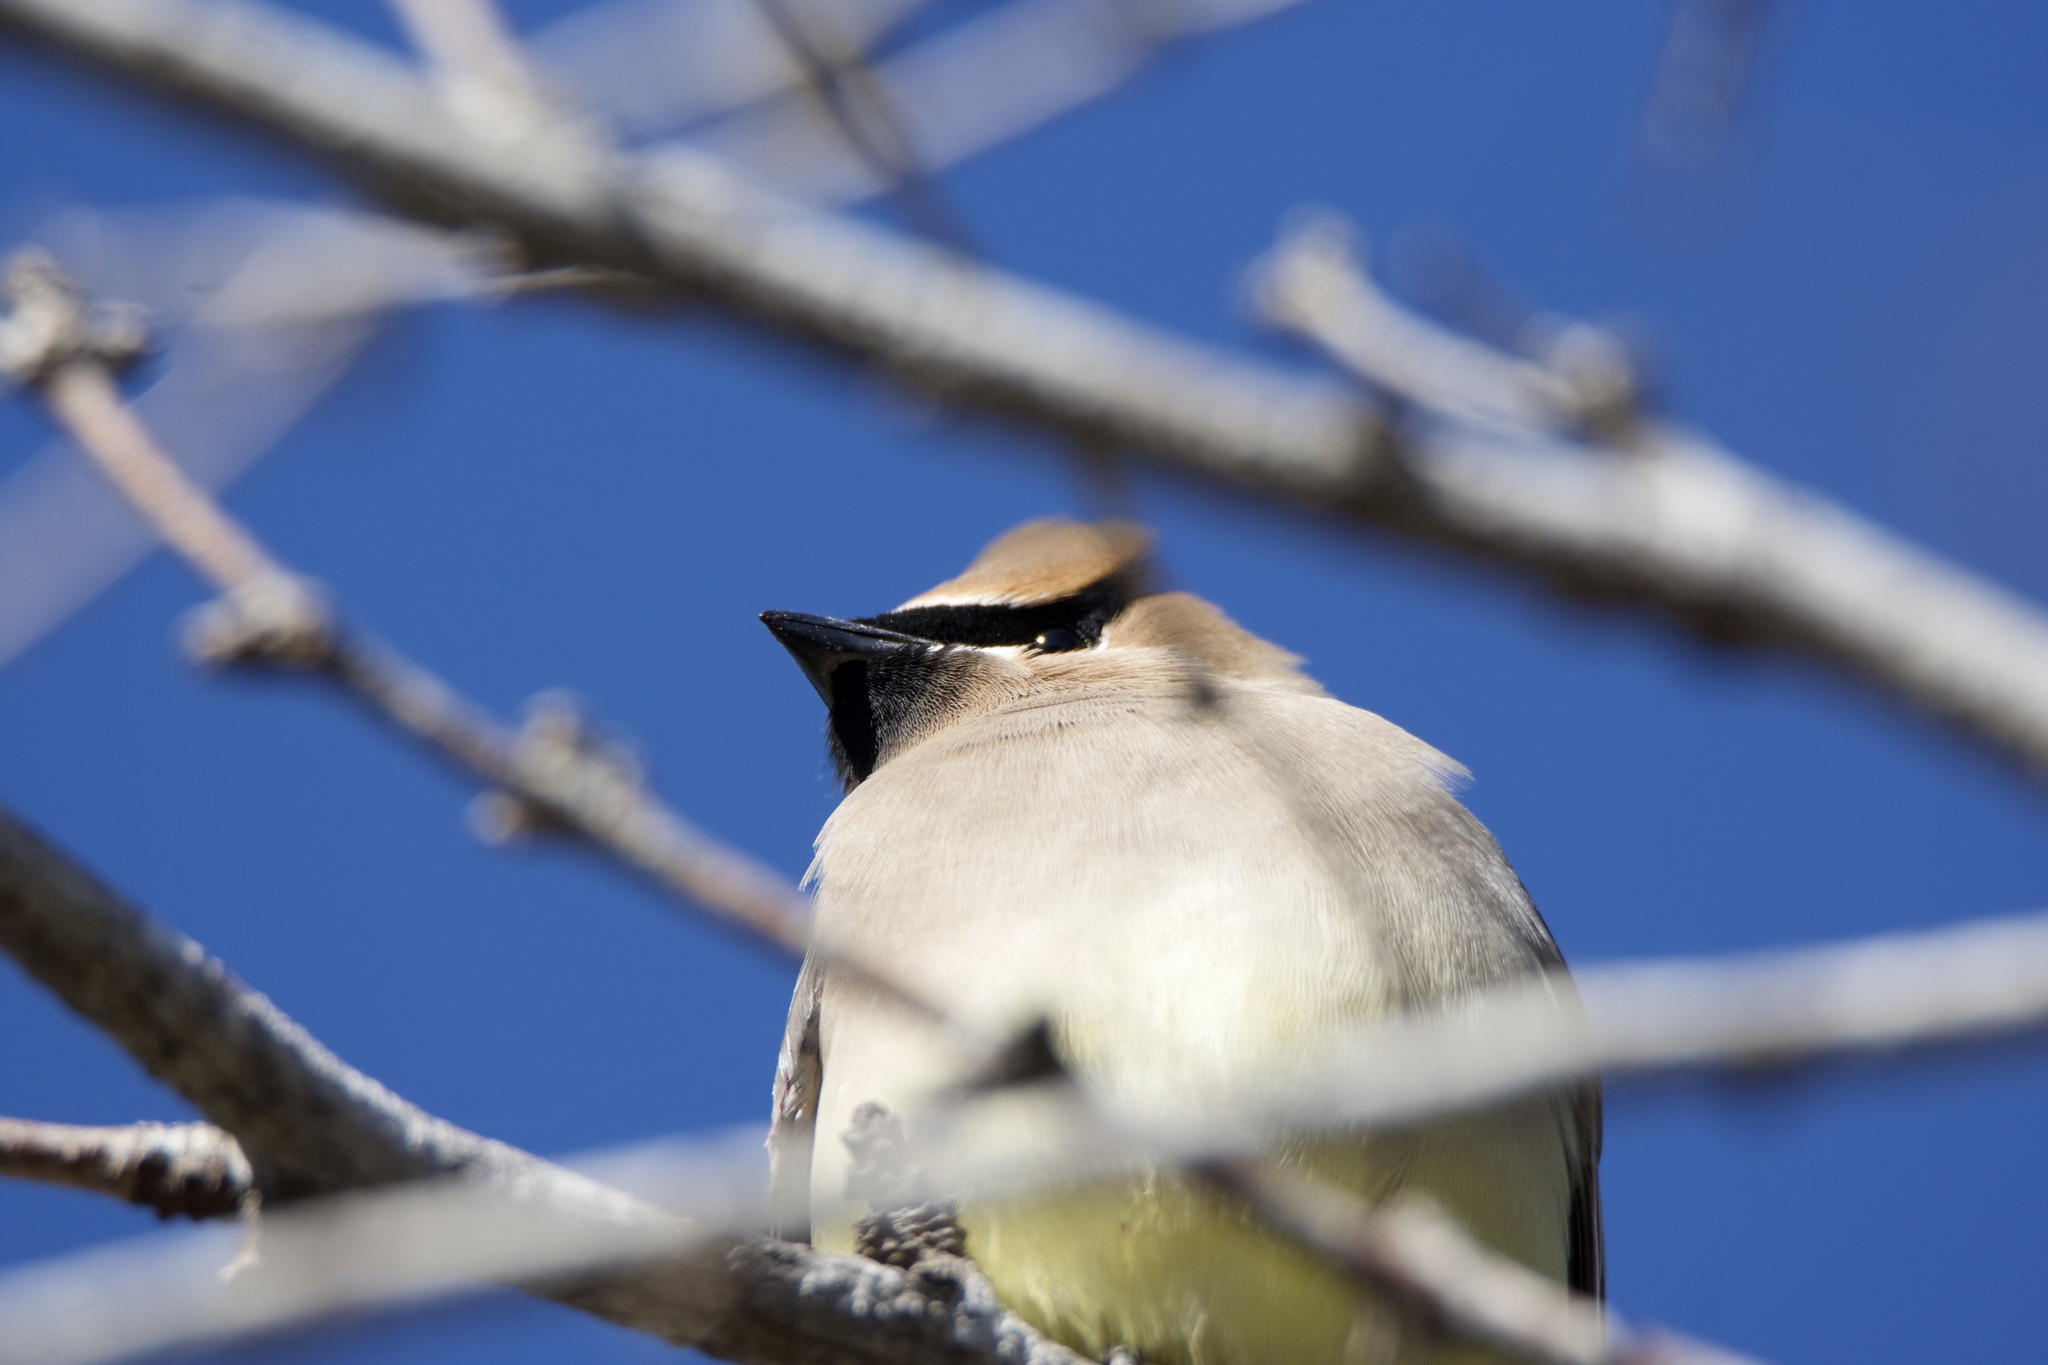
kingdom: Animalia
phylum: Chordata
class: Aves
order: Passeriformes
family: Bombycillidae
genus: Bombycilla
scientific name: Bombycilla cedrorum
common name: Cedar waxwing
